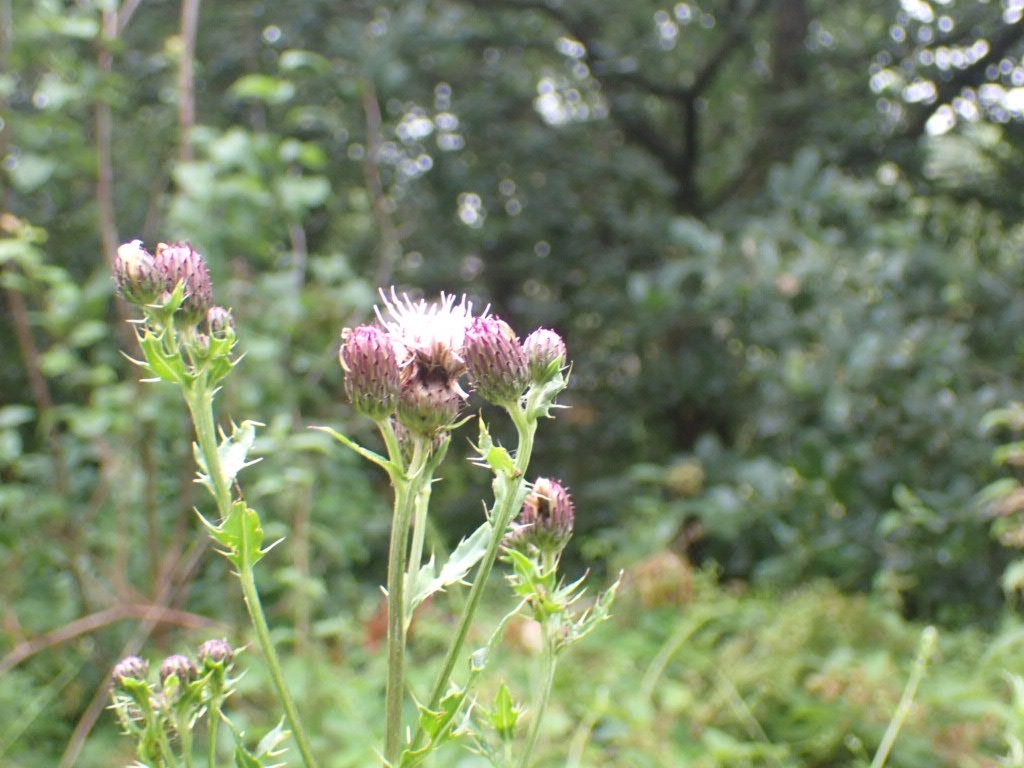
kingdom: Plantae
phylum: Tracheophyta
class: Magnoliopsida
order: Asterales
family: Asteraceae
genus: Cirsium
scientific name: Cirsium arvense
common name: Creeping thistle
